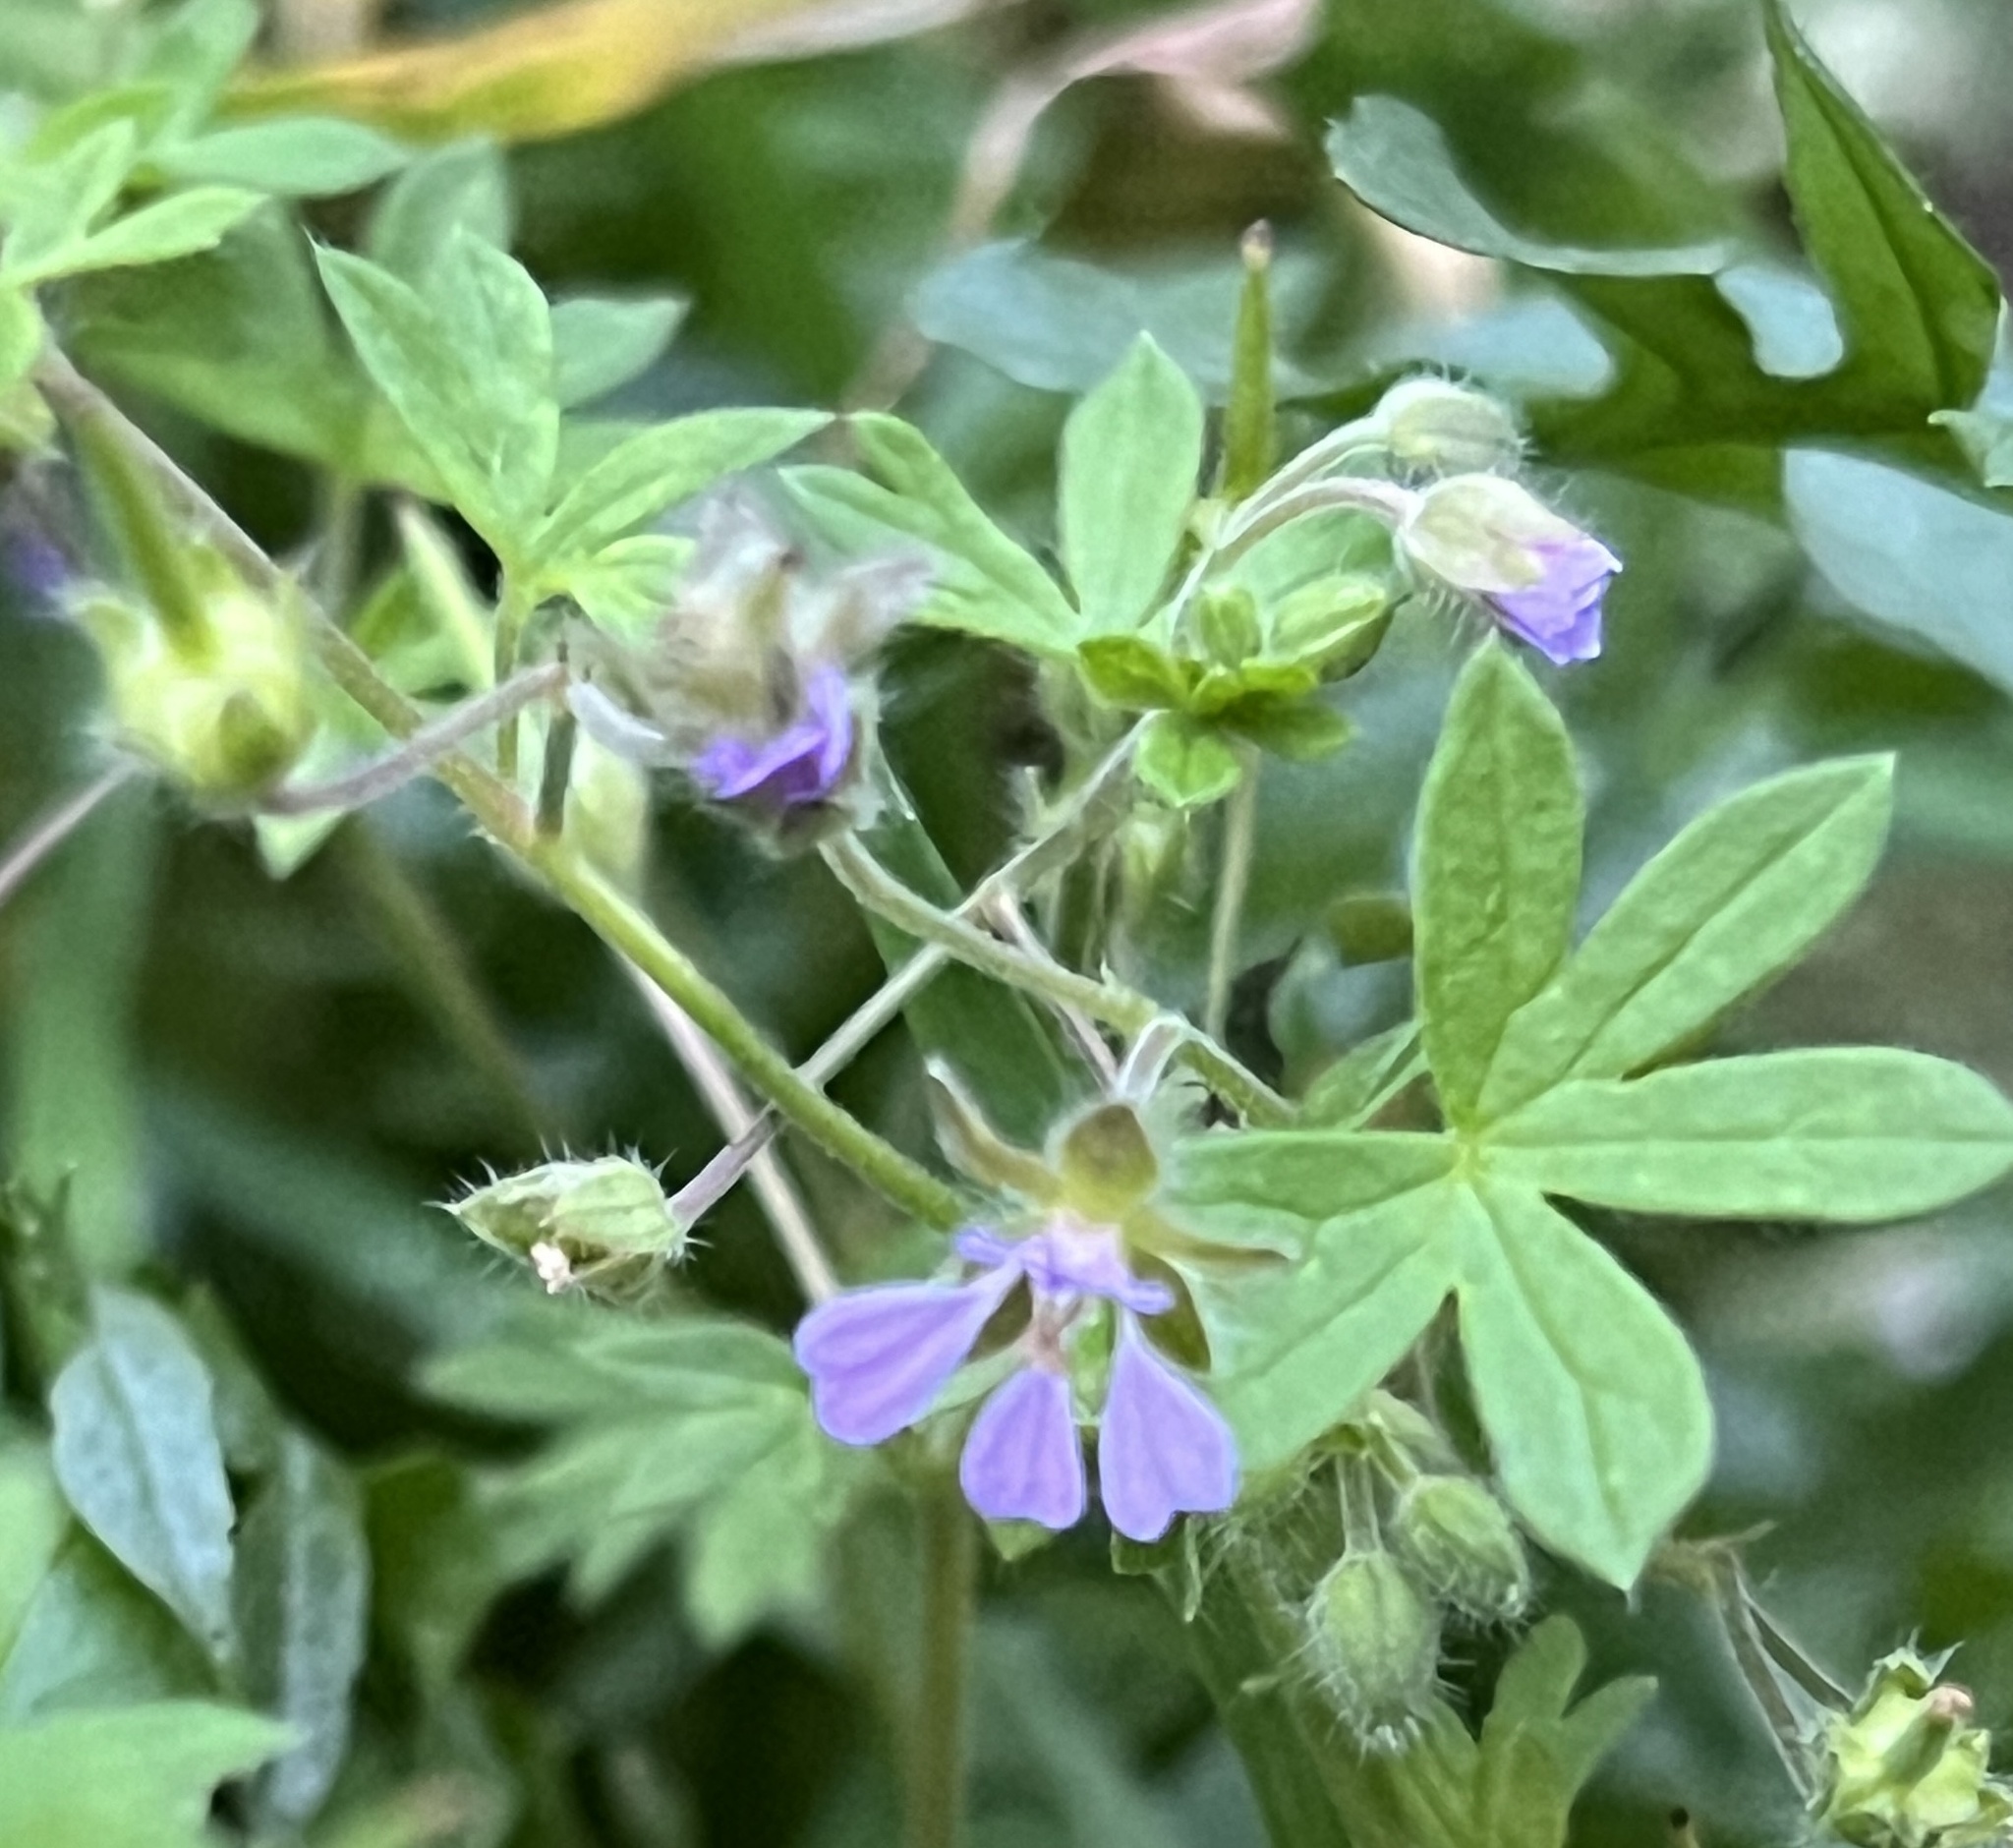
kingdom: Plantae
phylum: Tracheophyta
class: Magnoliopsida
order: Geraniales
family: Geraniaceae
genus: Geranium
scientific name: Geranium pusillum
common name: Small geranium
